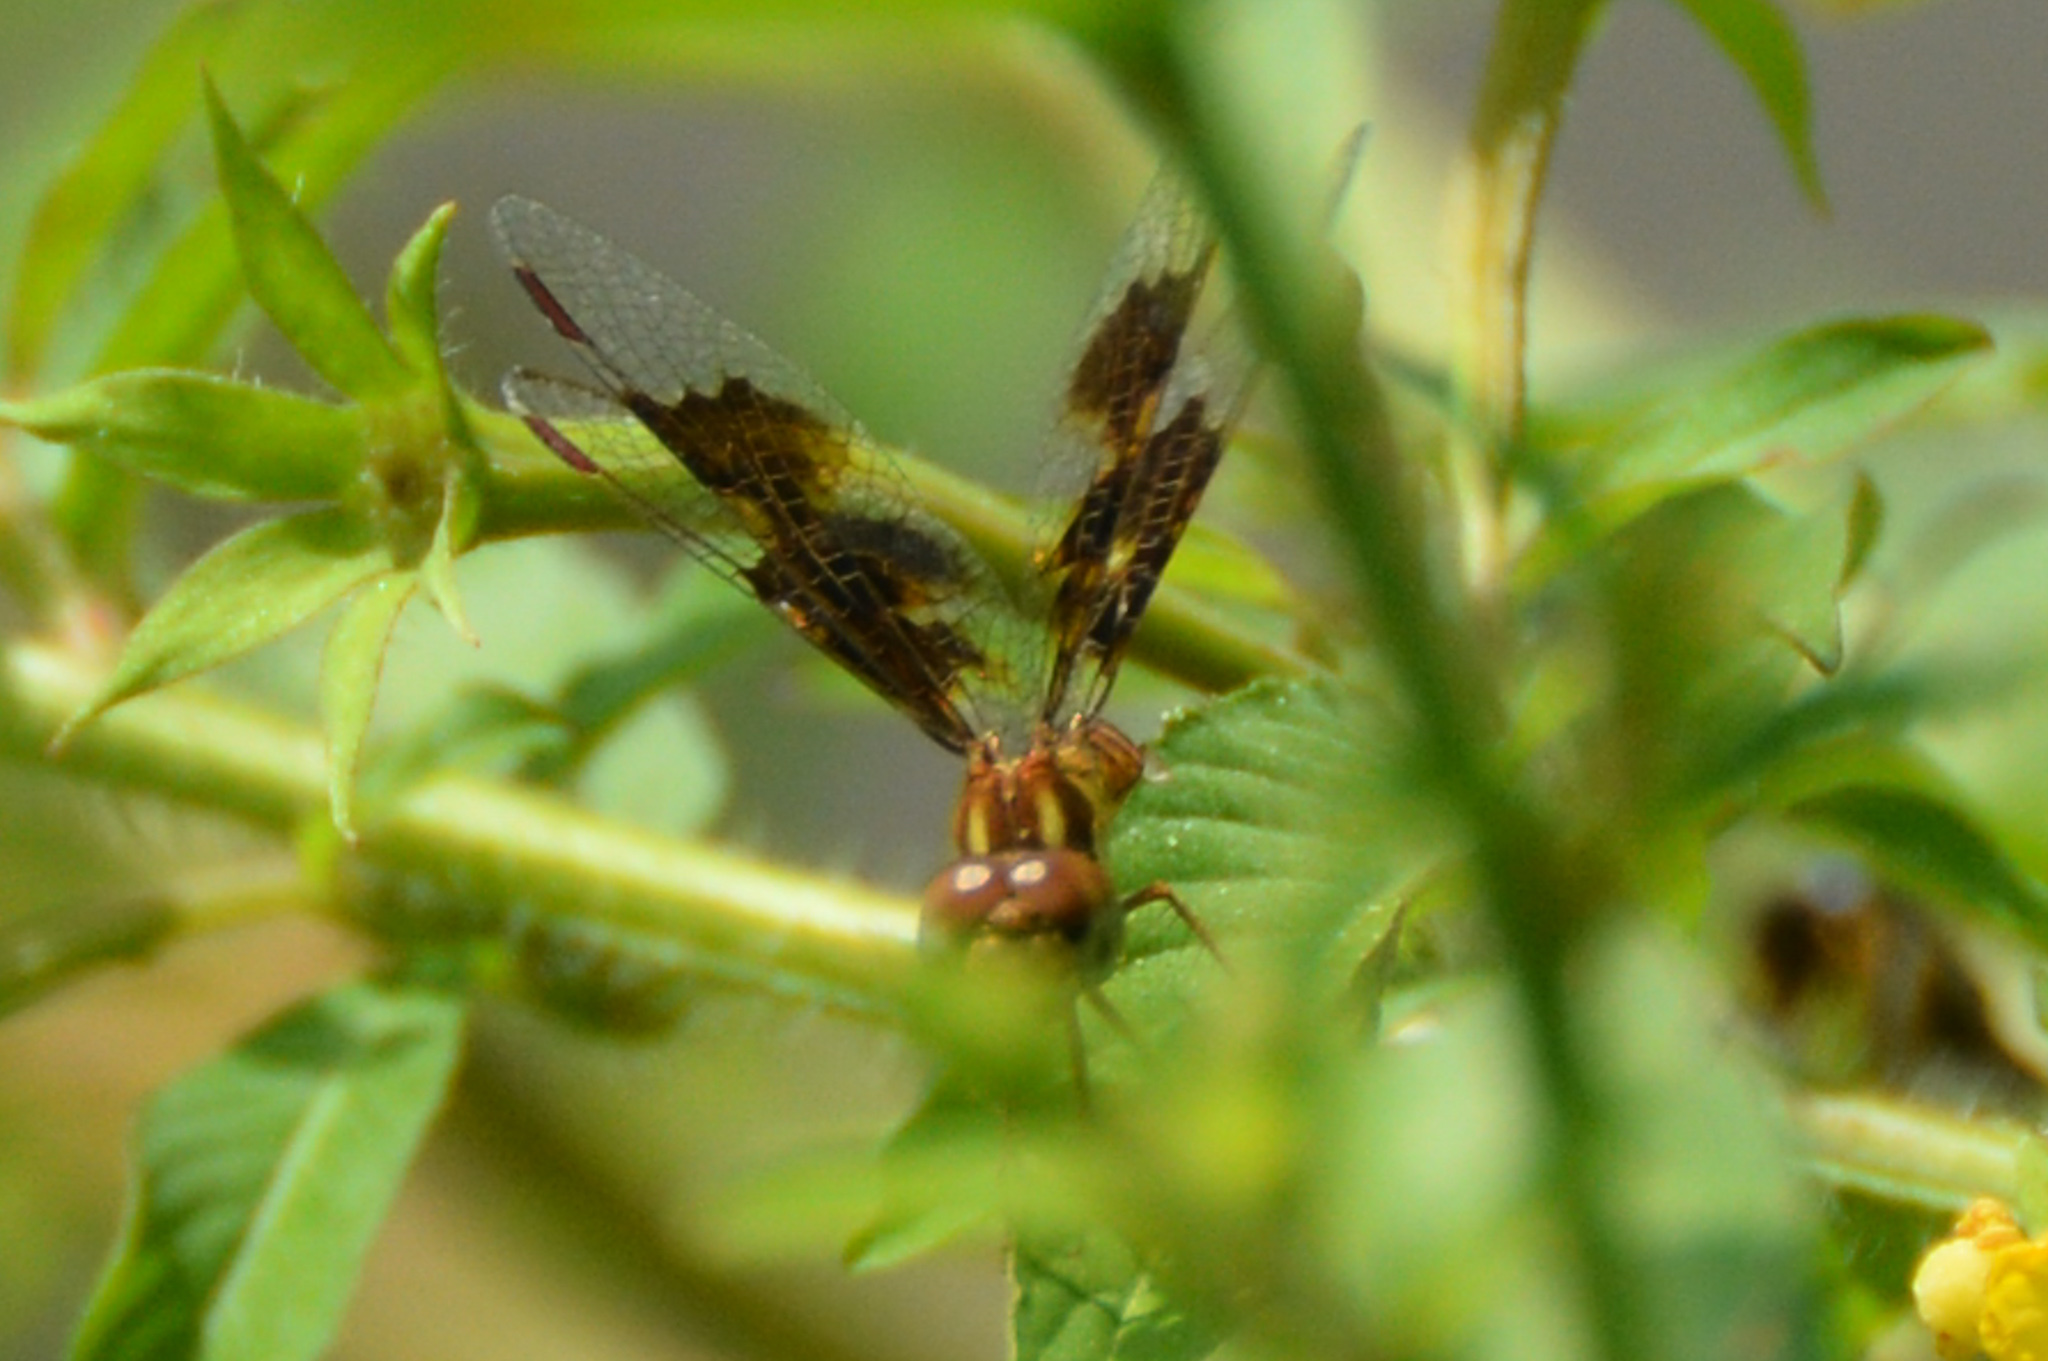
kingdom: Animalia
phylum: Arthropoda
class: Insecta
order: Odonata
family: Libellulidae
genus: Perithemis
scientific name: Perithemis tenera
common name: Eastern amberwing
